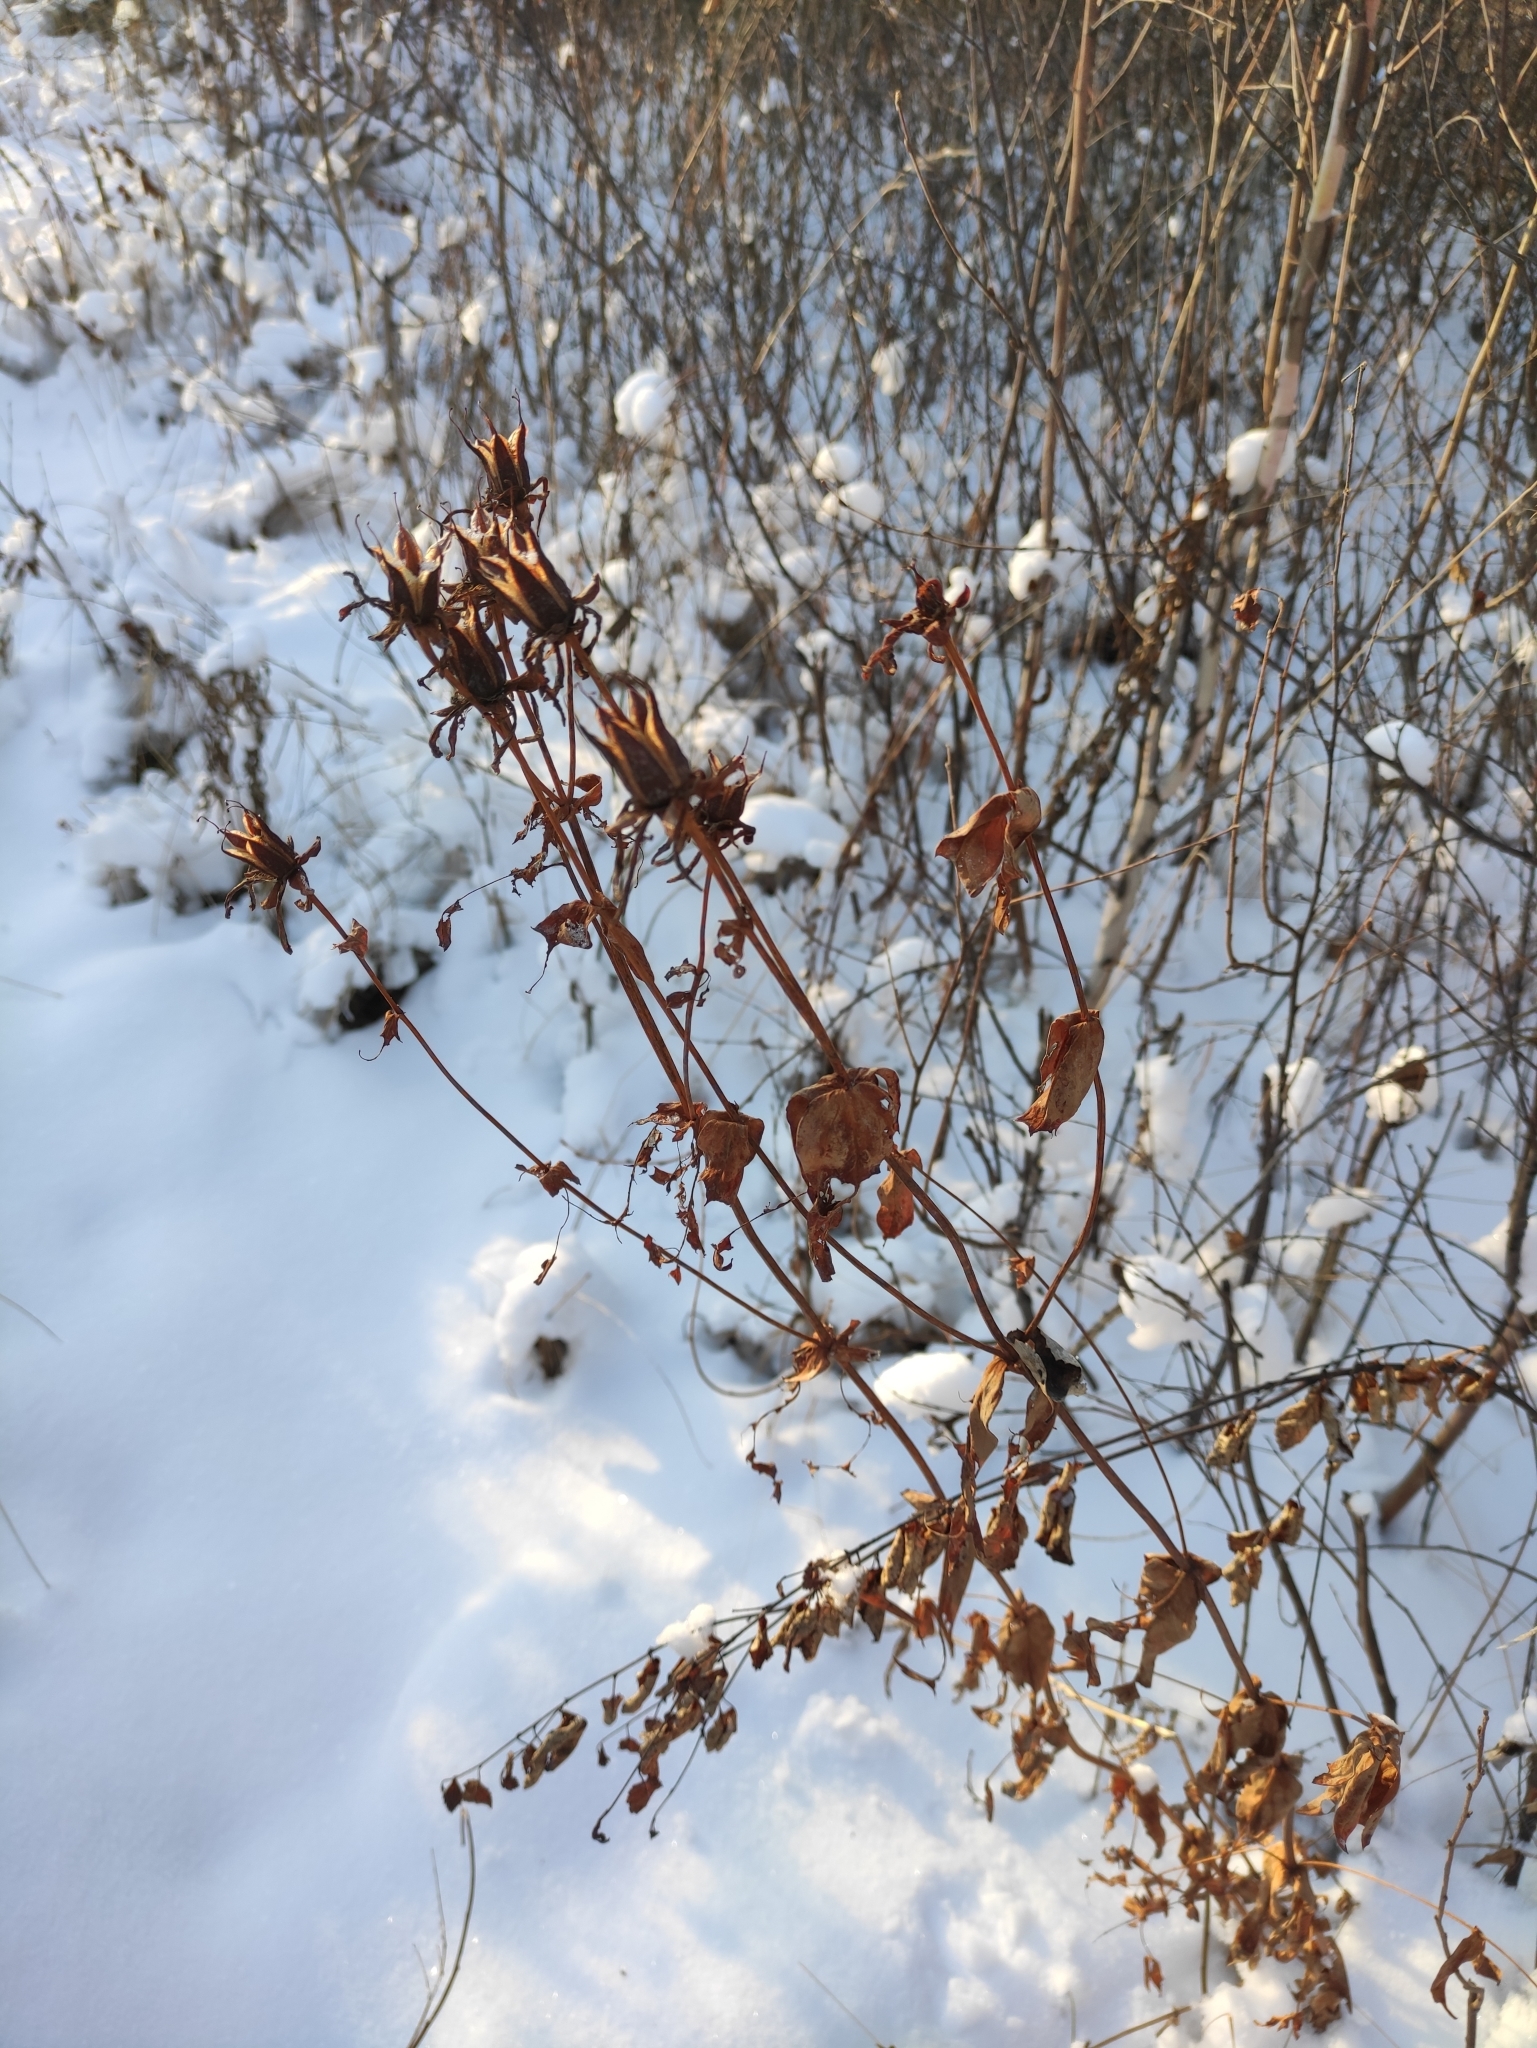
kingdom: Plantae
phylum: Tracheophyta
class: Magnoliopsida
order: Malpighiales
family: Hypericaceae
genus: Hypericum
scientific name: Hypericum ascyron
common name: Giant st. john's-wort
